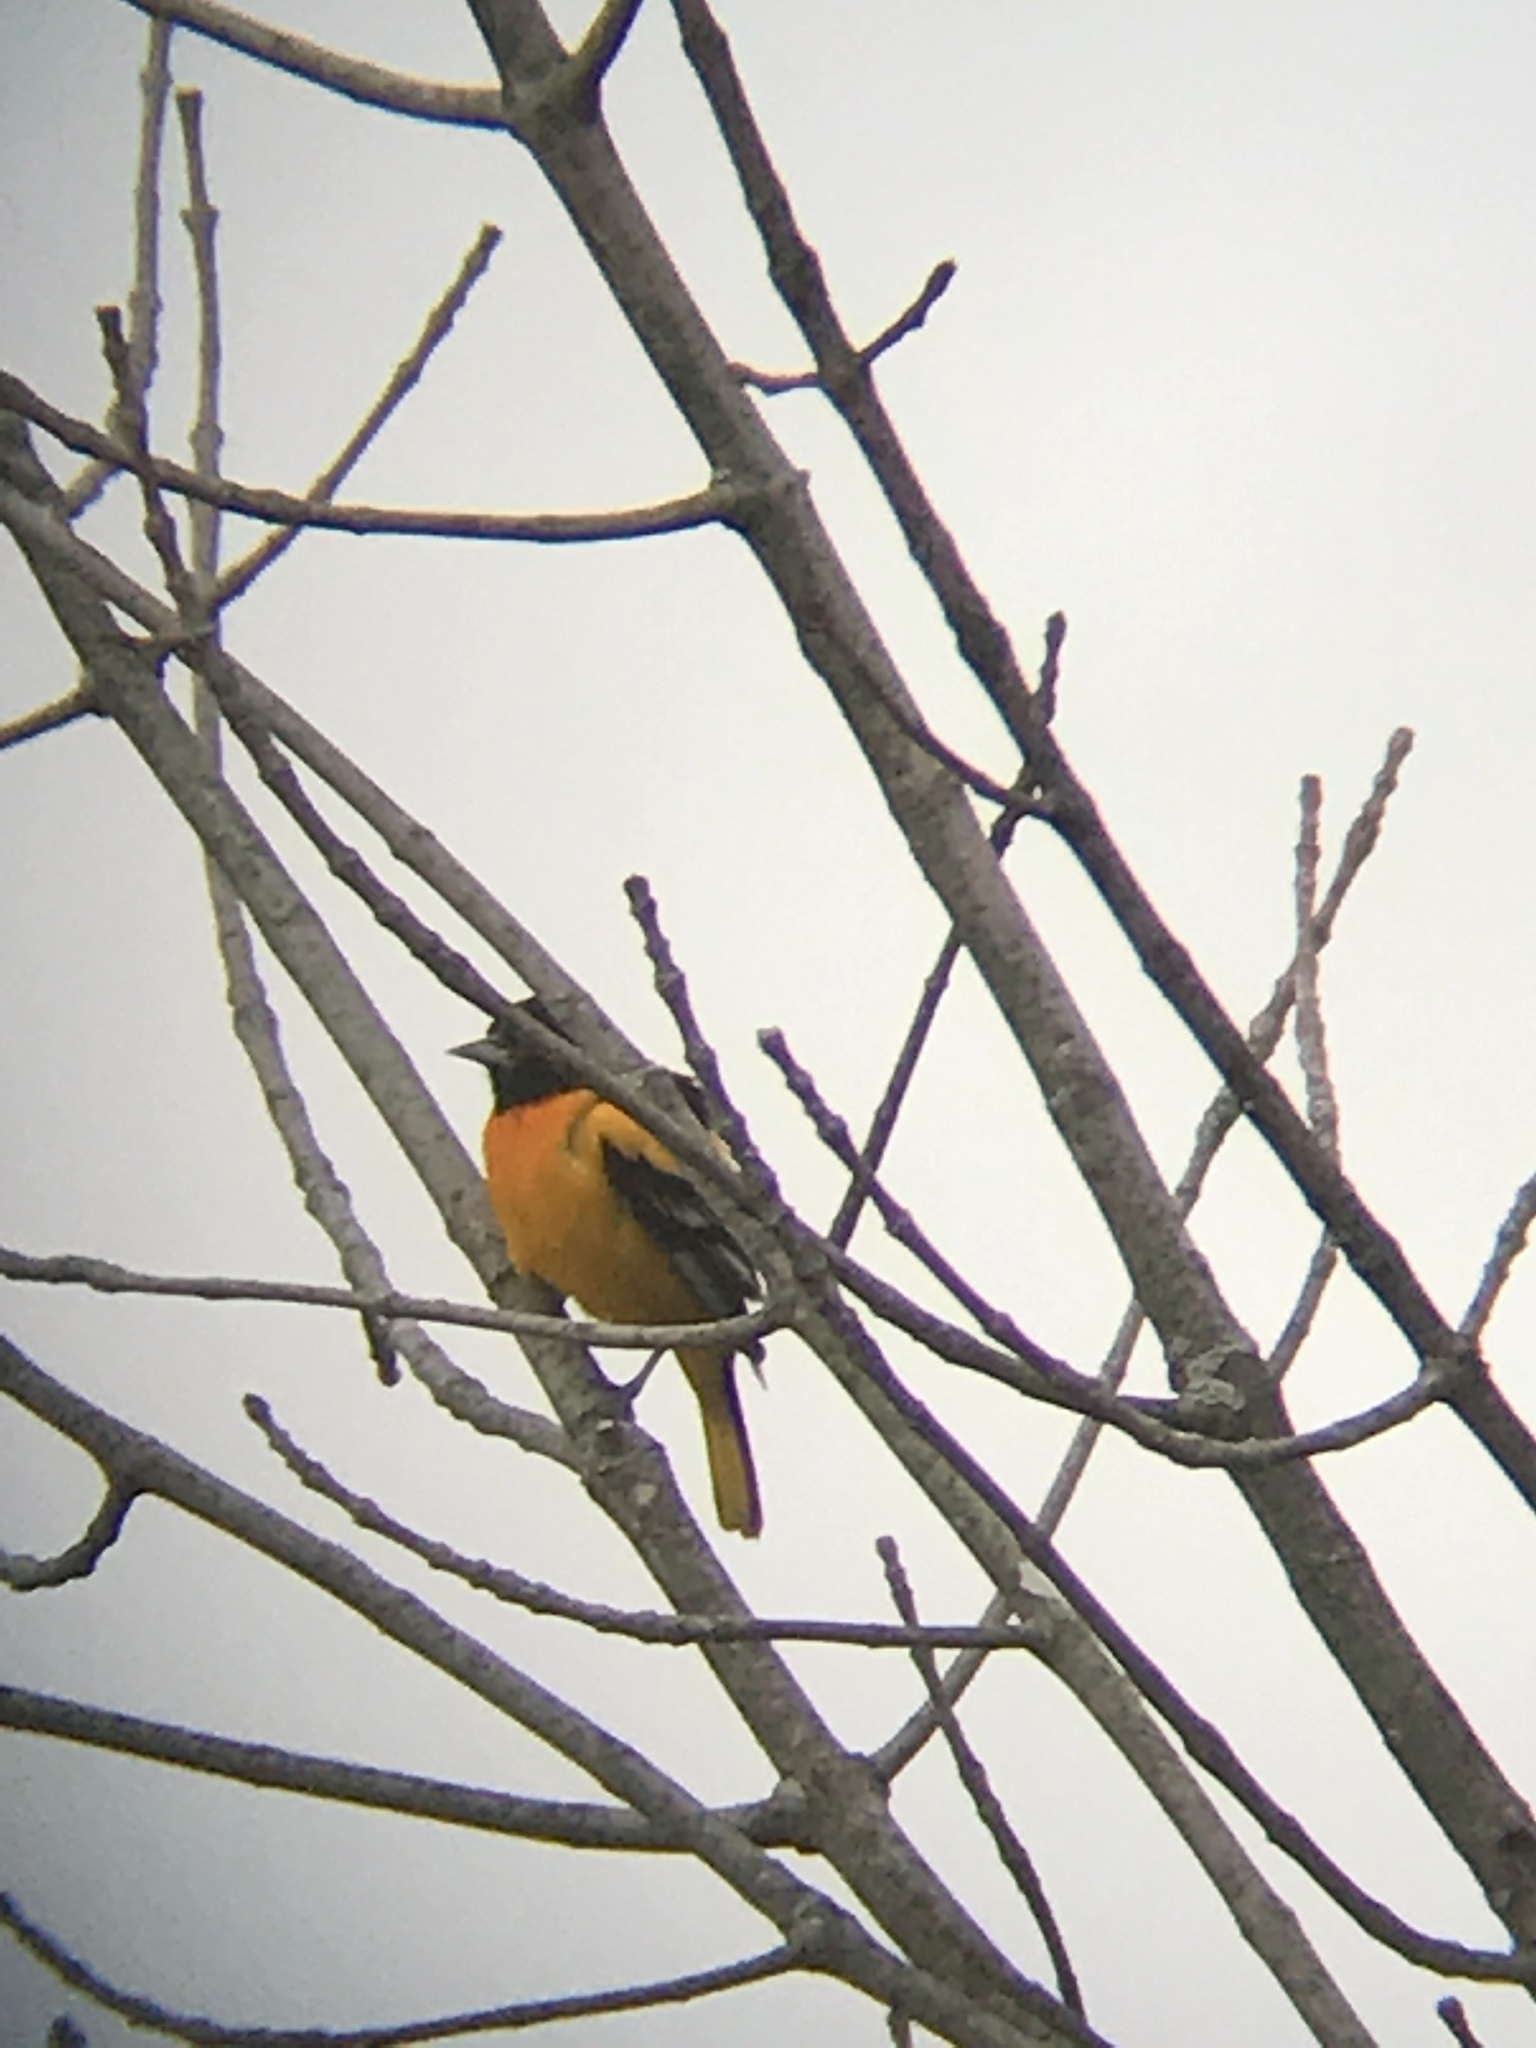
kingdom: Animalia
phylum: Chordata
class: Aves
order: Passeriformes
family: Icteridae
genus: Icterus
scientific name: Icterus galbula
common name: Baltimore oriole
